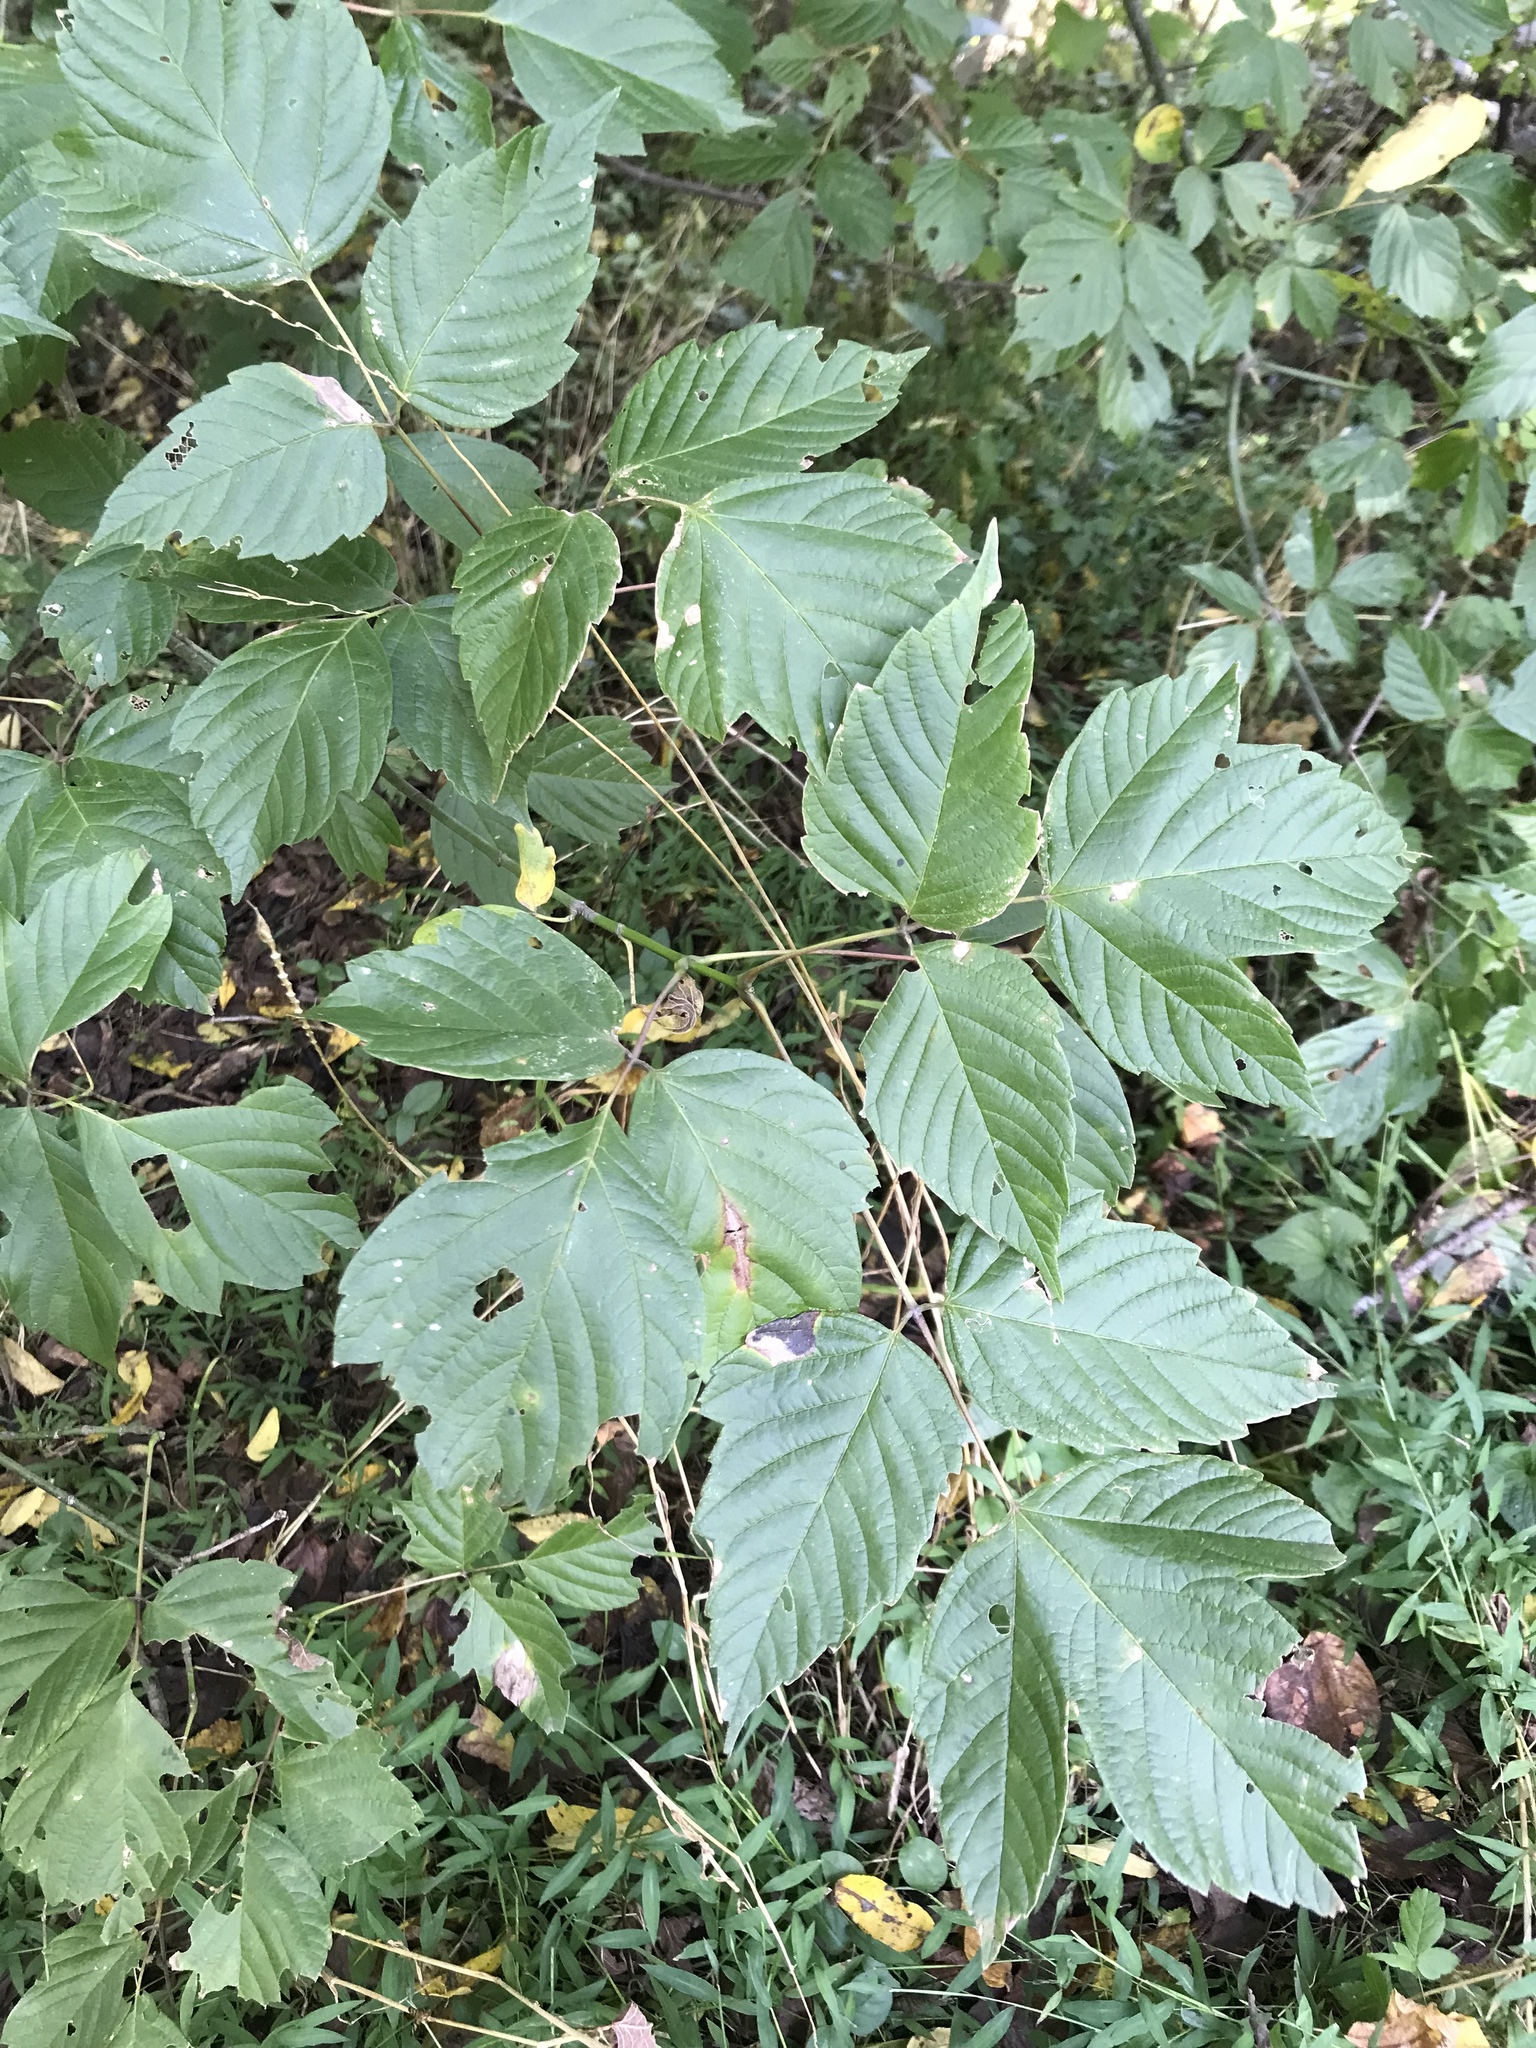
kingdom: Plantae
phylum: Tracheophyta
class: Magnoliopsida
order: Sapindales
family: Sapindaceae
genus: Acer
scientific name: Acer negundo
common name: Ashleaf maple
